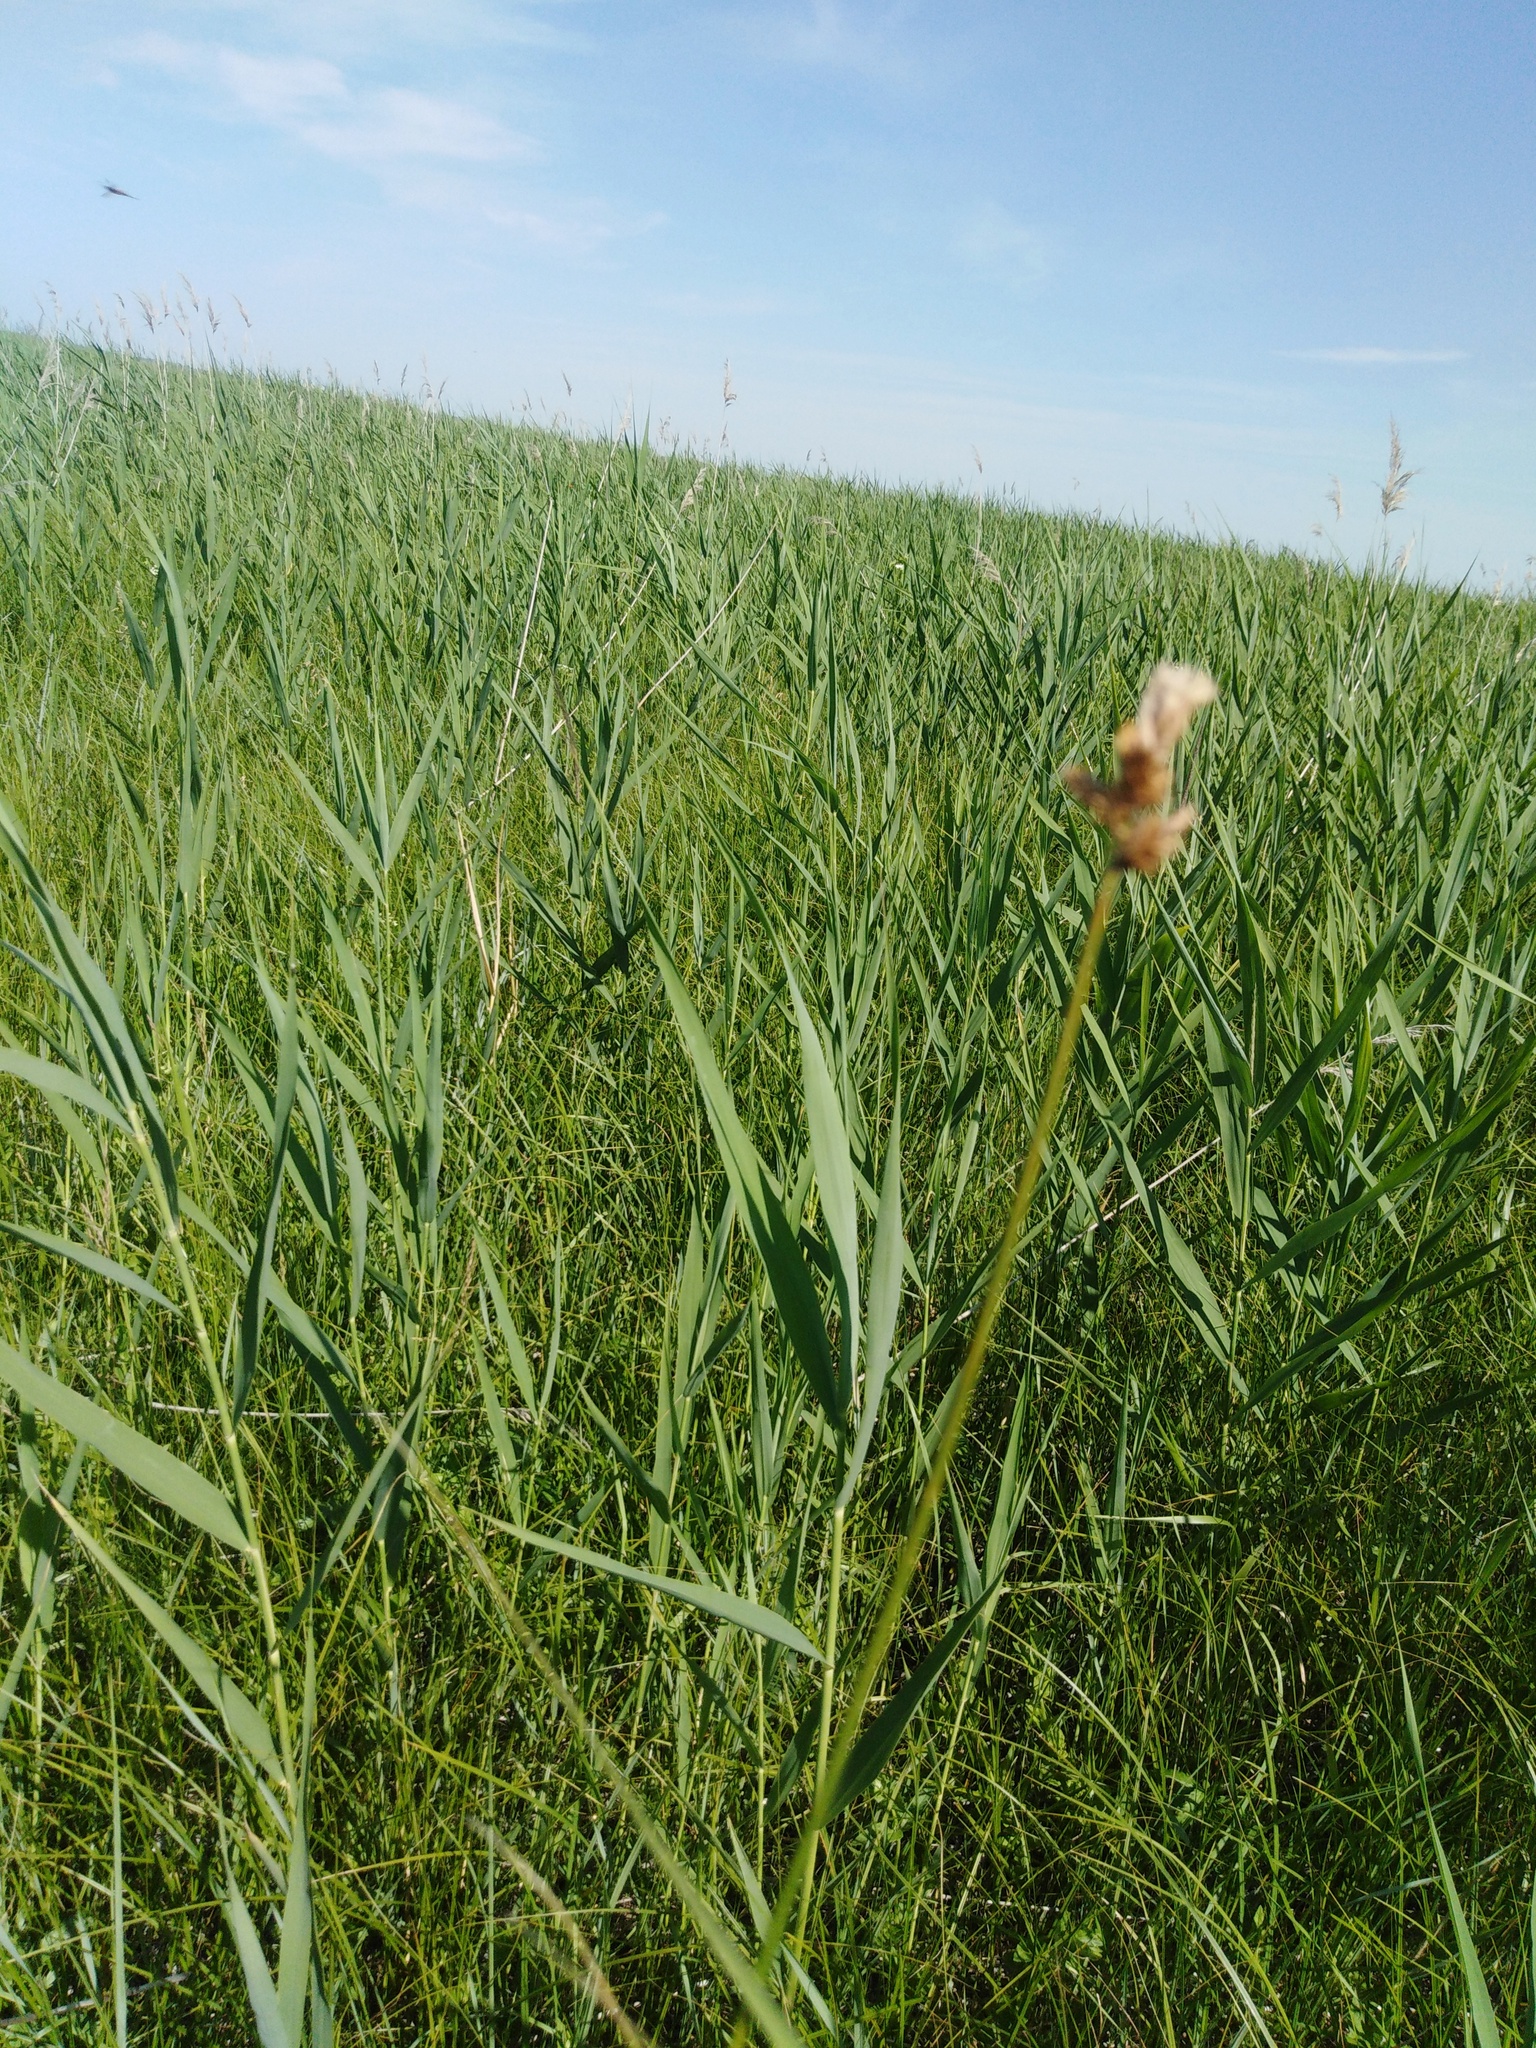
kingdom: Plantae
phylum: Tracheophyta
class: Liliopsida
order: Poales
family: Cyperaceae
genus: Carex
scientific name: Carex disticha
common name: Brown sedge
